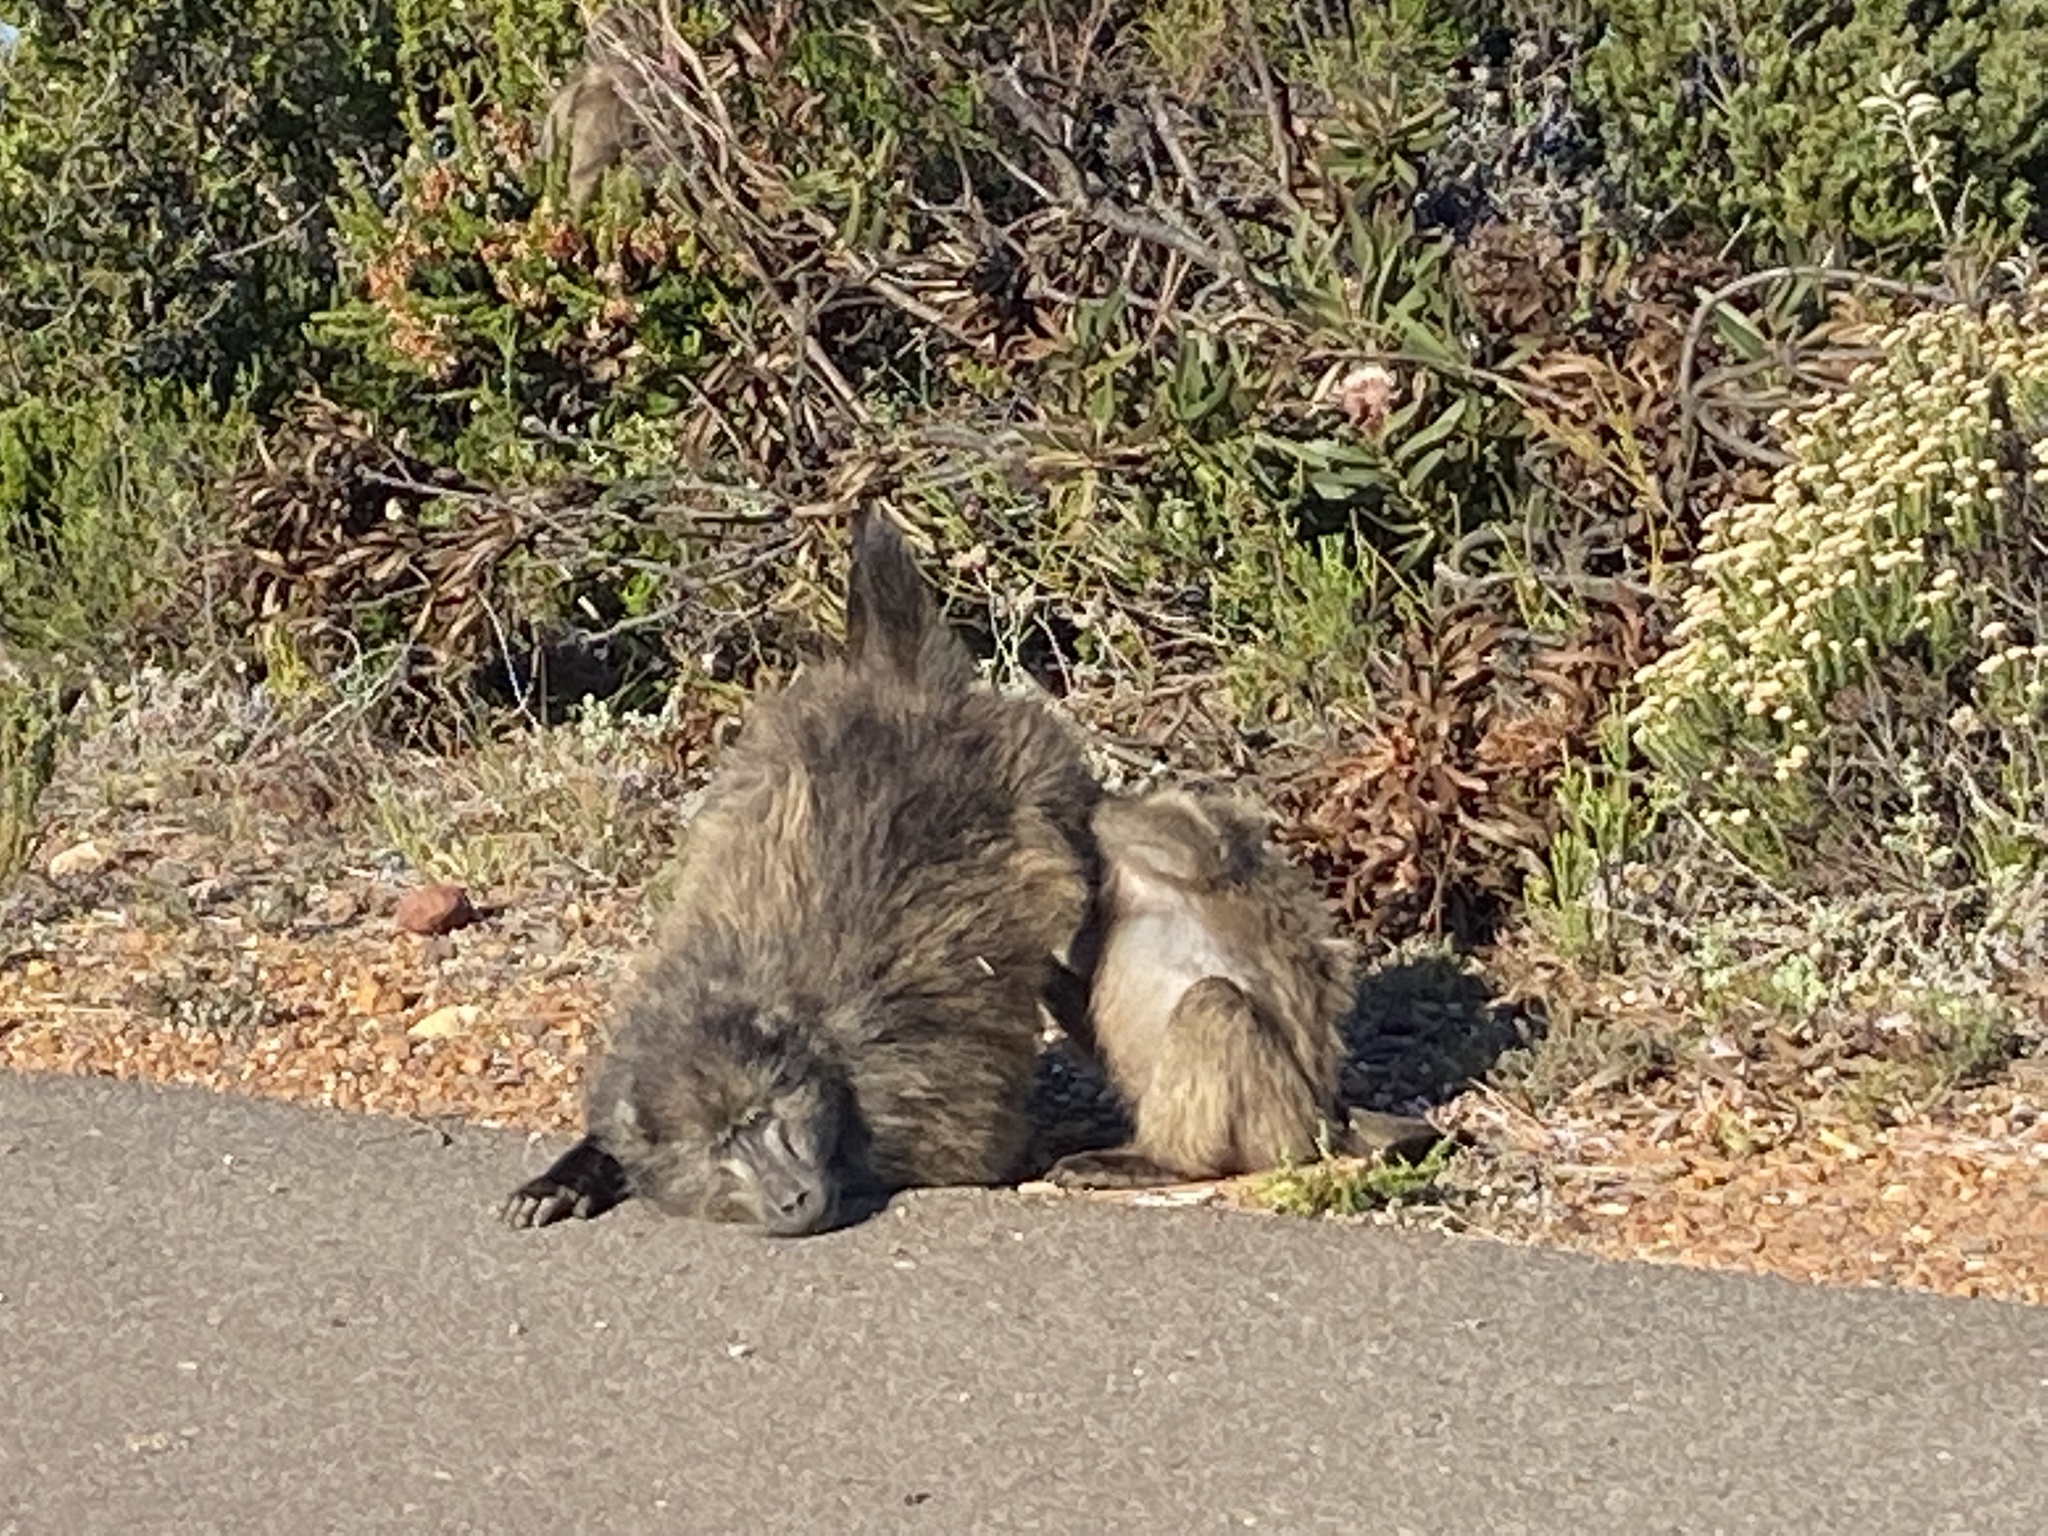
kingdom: Animalia
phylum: Chordata
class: Mammalia
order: Primates
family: Cercopithecidae
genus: Papio
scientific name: Papio ursinus
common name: Chacma baboon
